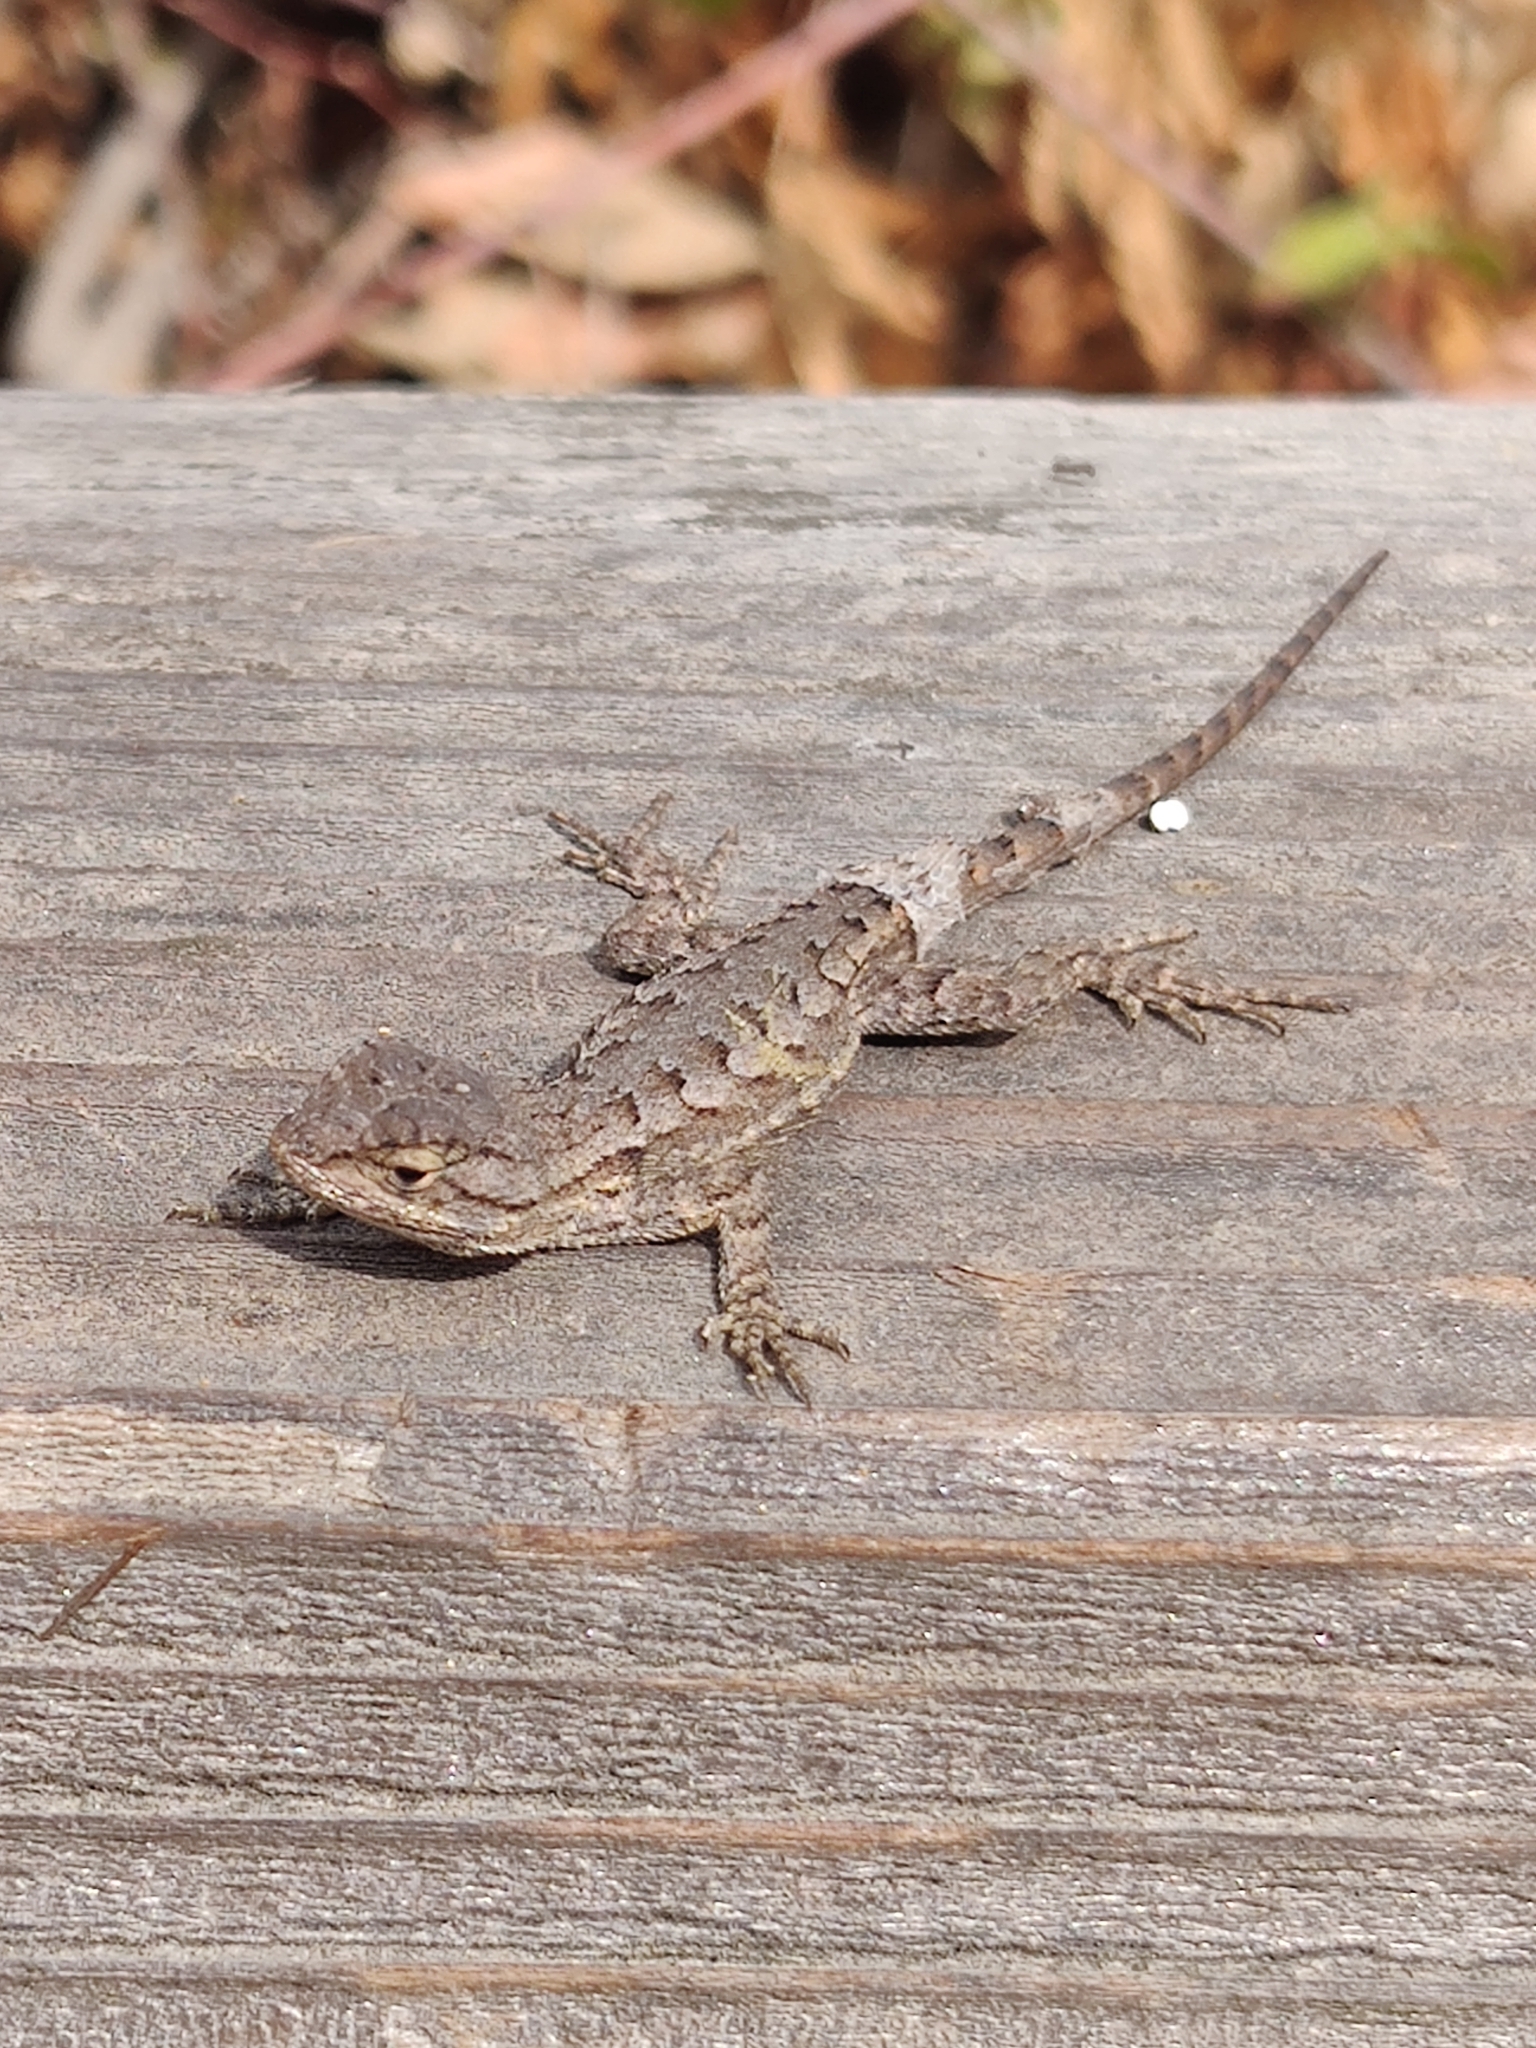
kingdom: Animalia
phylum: Chordata
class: Squamata
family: Phrynosomatidae
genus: Sceloporus
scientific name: Sceloporus occidentalis
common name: Western fence lizard
